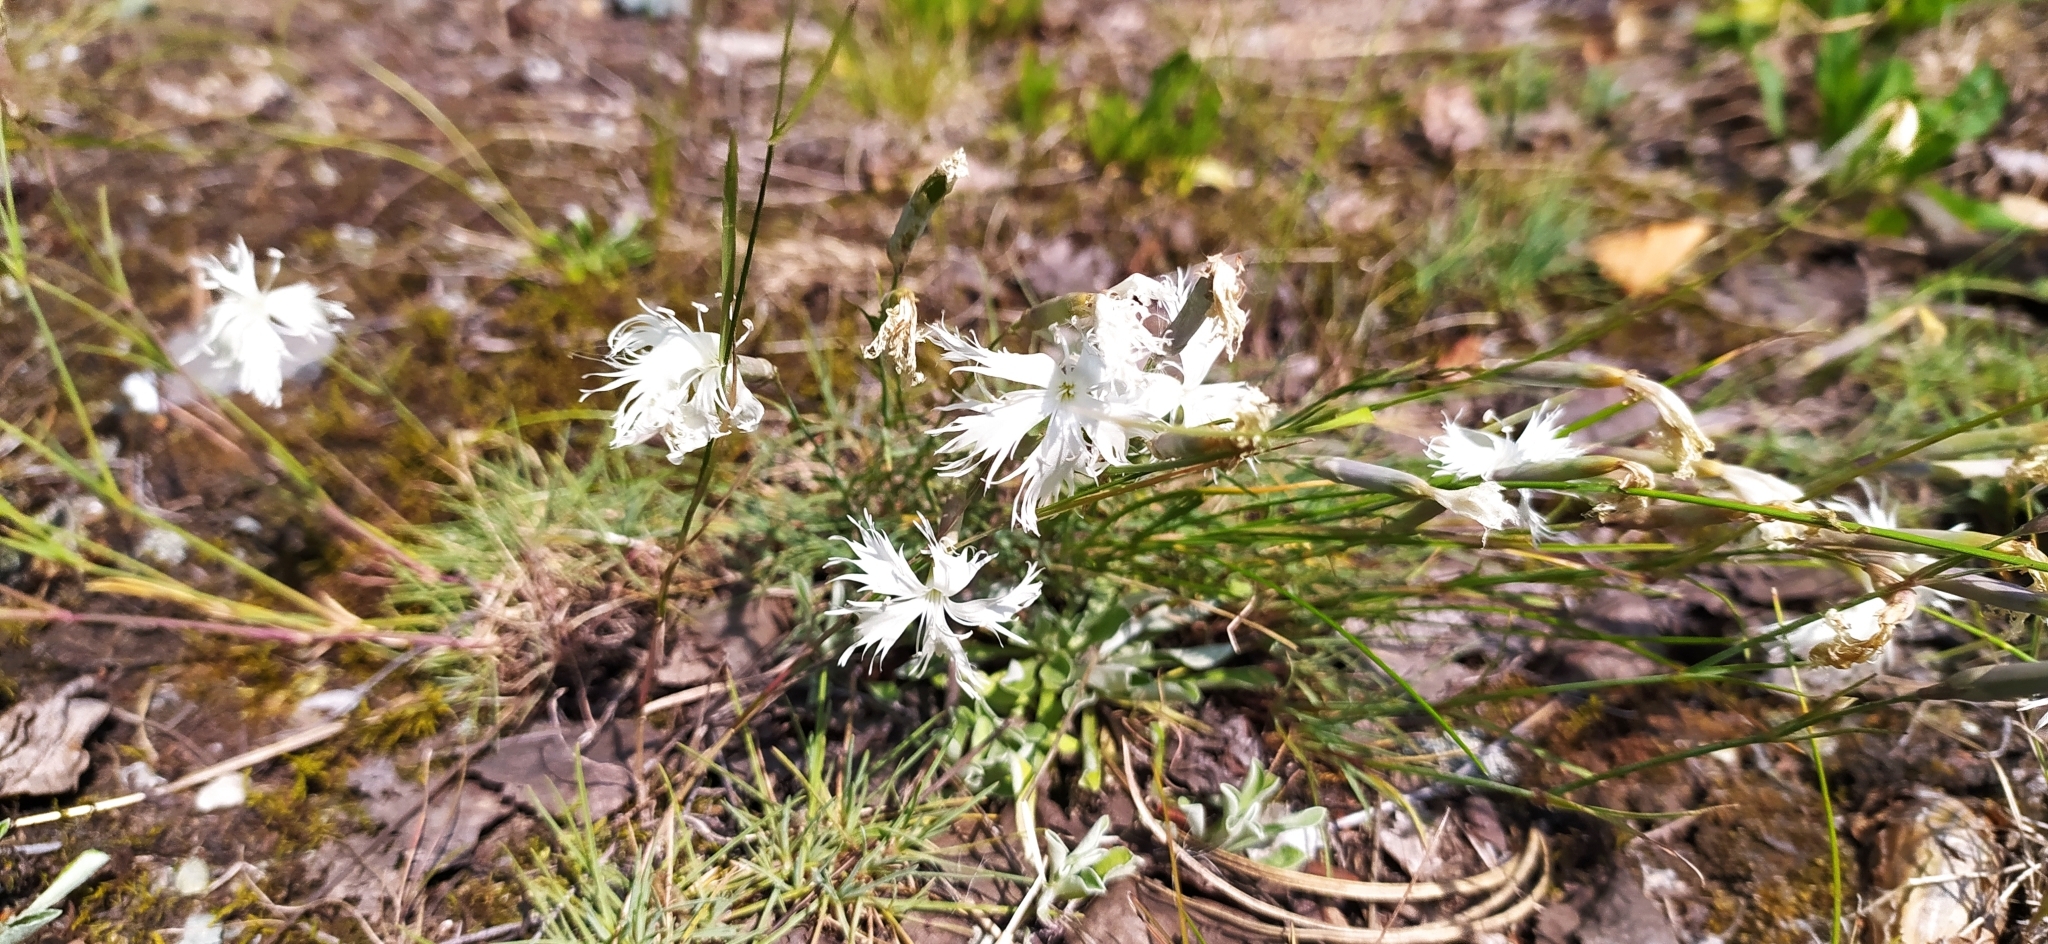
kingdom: Plantae
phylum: Tracheophyta
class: Magnoliopsida
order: Caryophyllales
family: Caryophyllaceae
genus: Dianthus
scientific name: Dianthus acicularis
